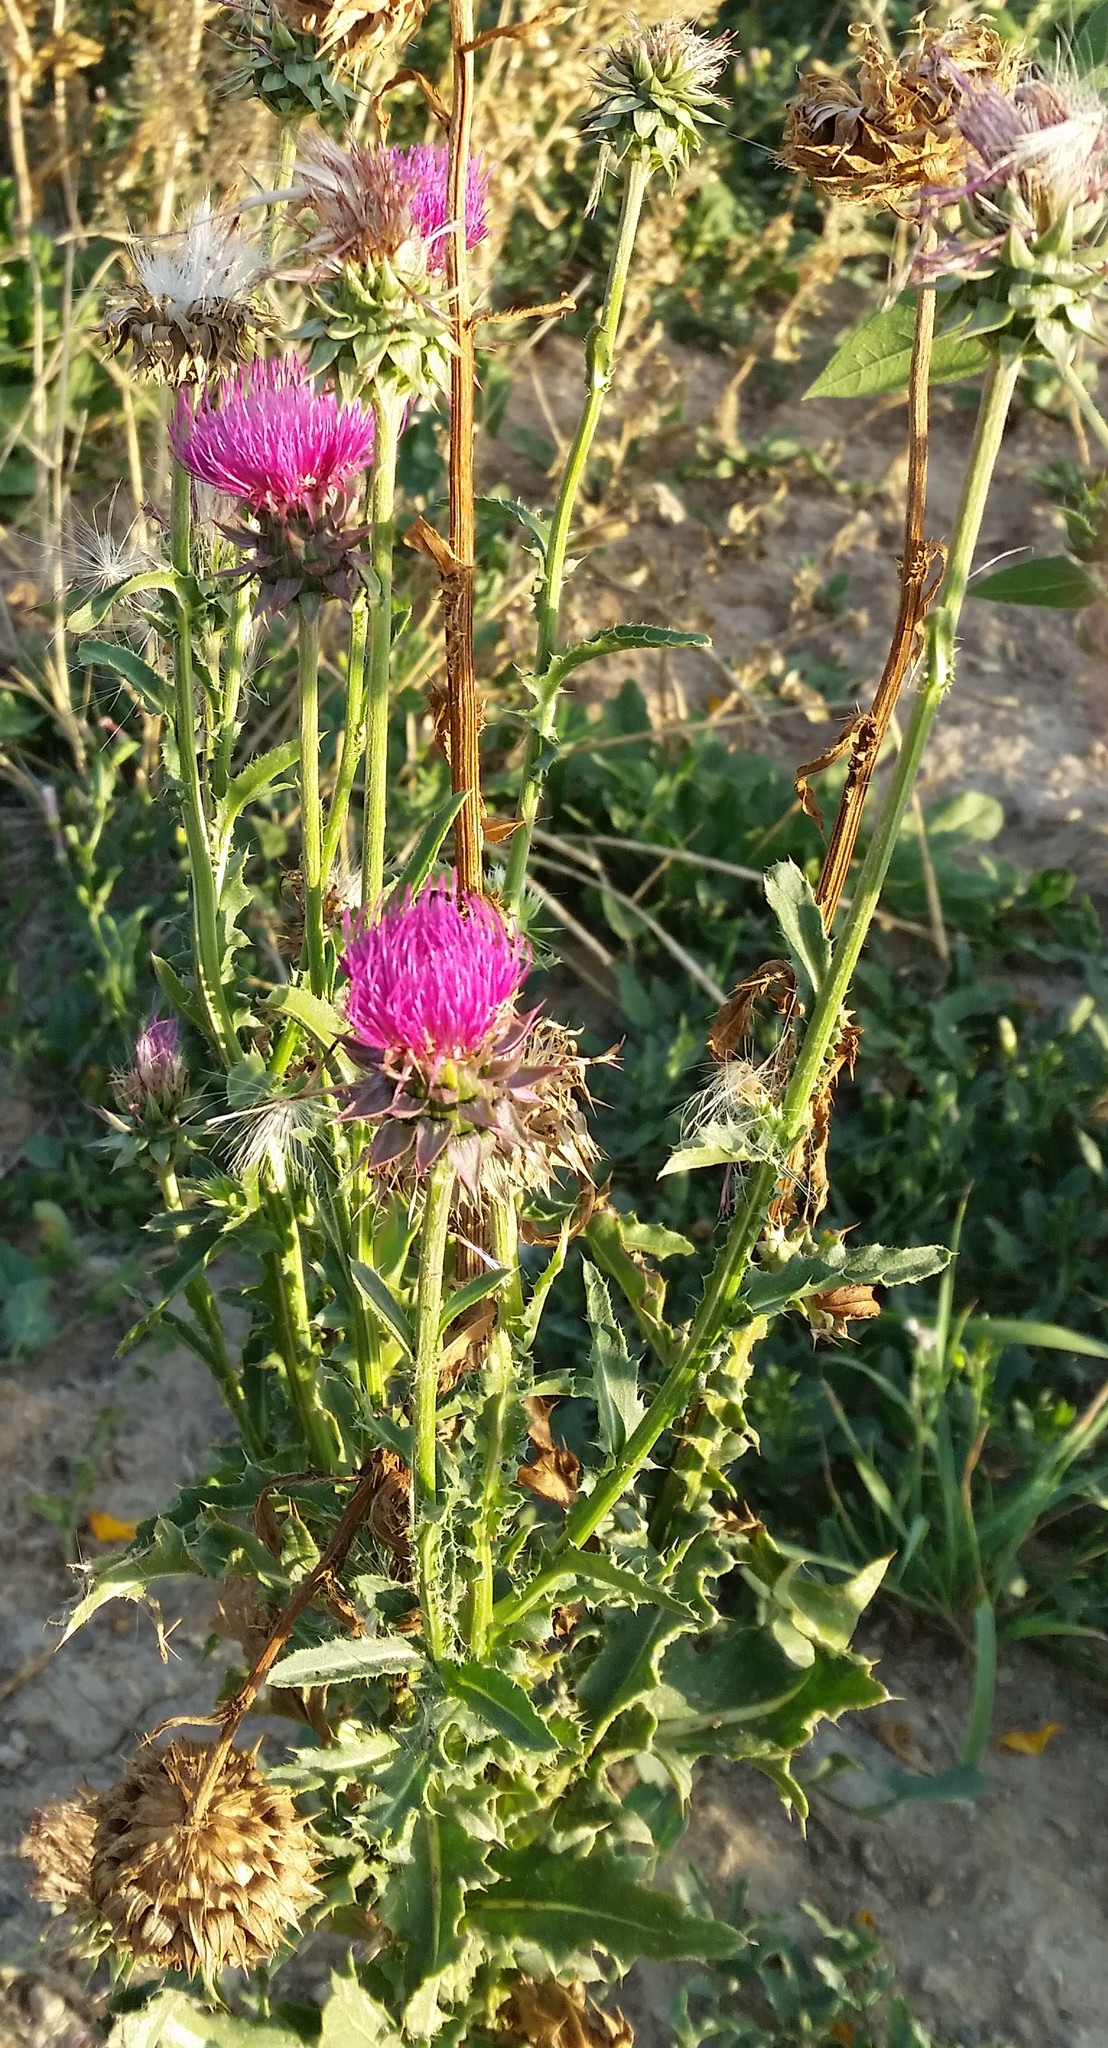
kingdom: Plantae
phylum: Tracheophyta
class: Magnoliopsida
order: Asterales
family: Asteraceae
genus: Carduus
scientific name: Carduus nutans
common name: Musk thistle
